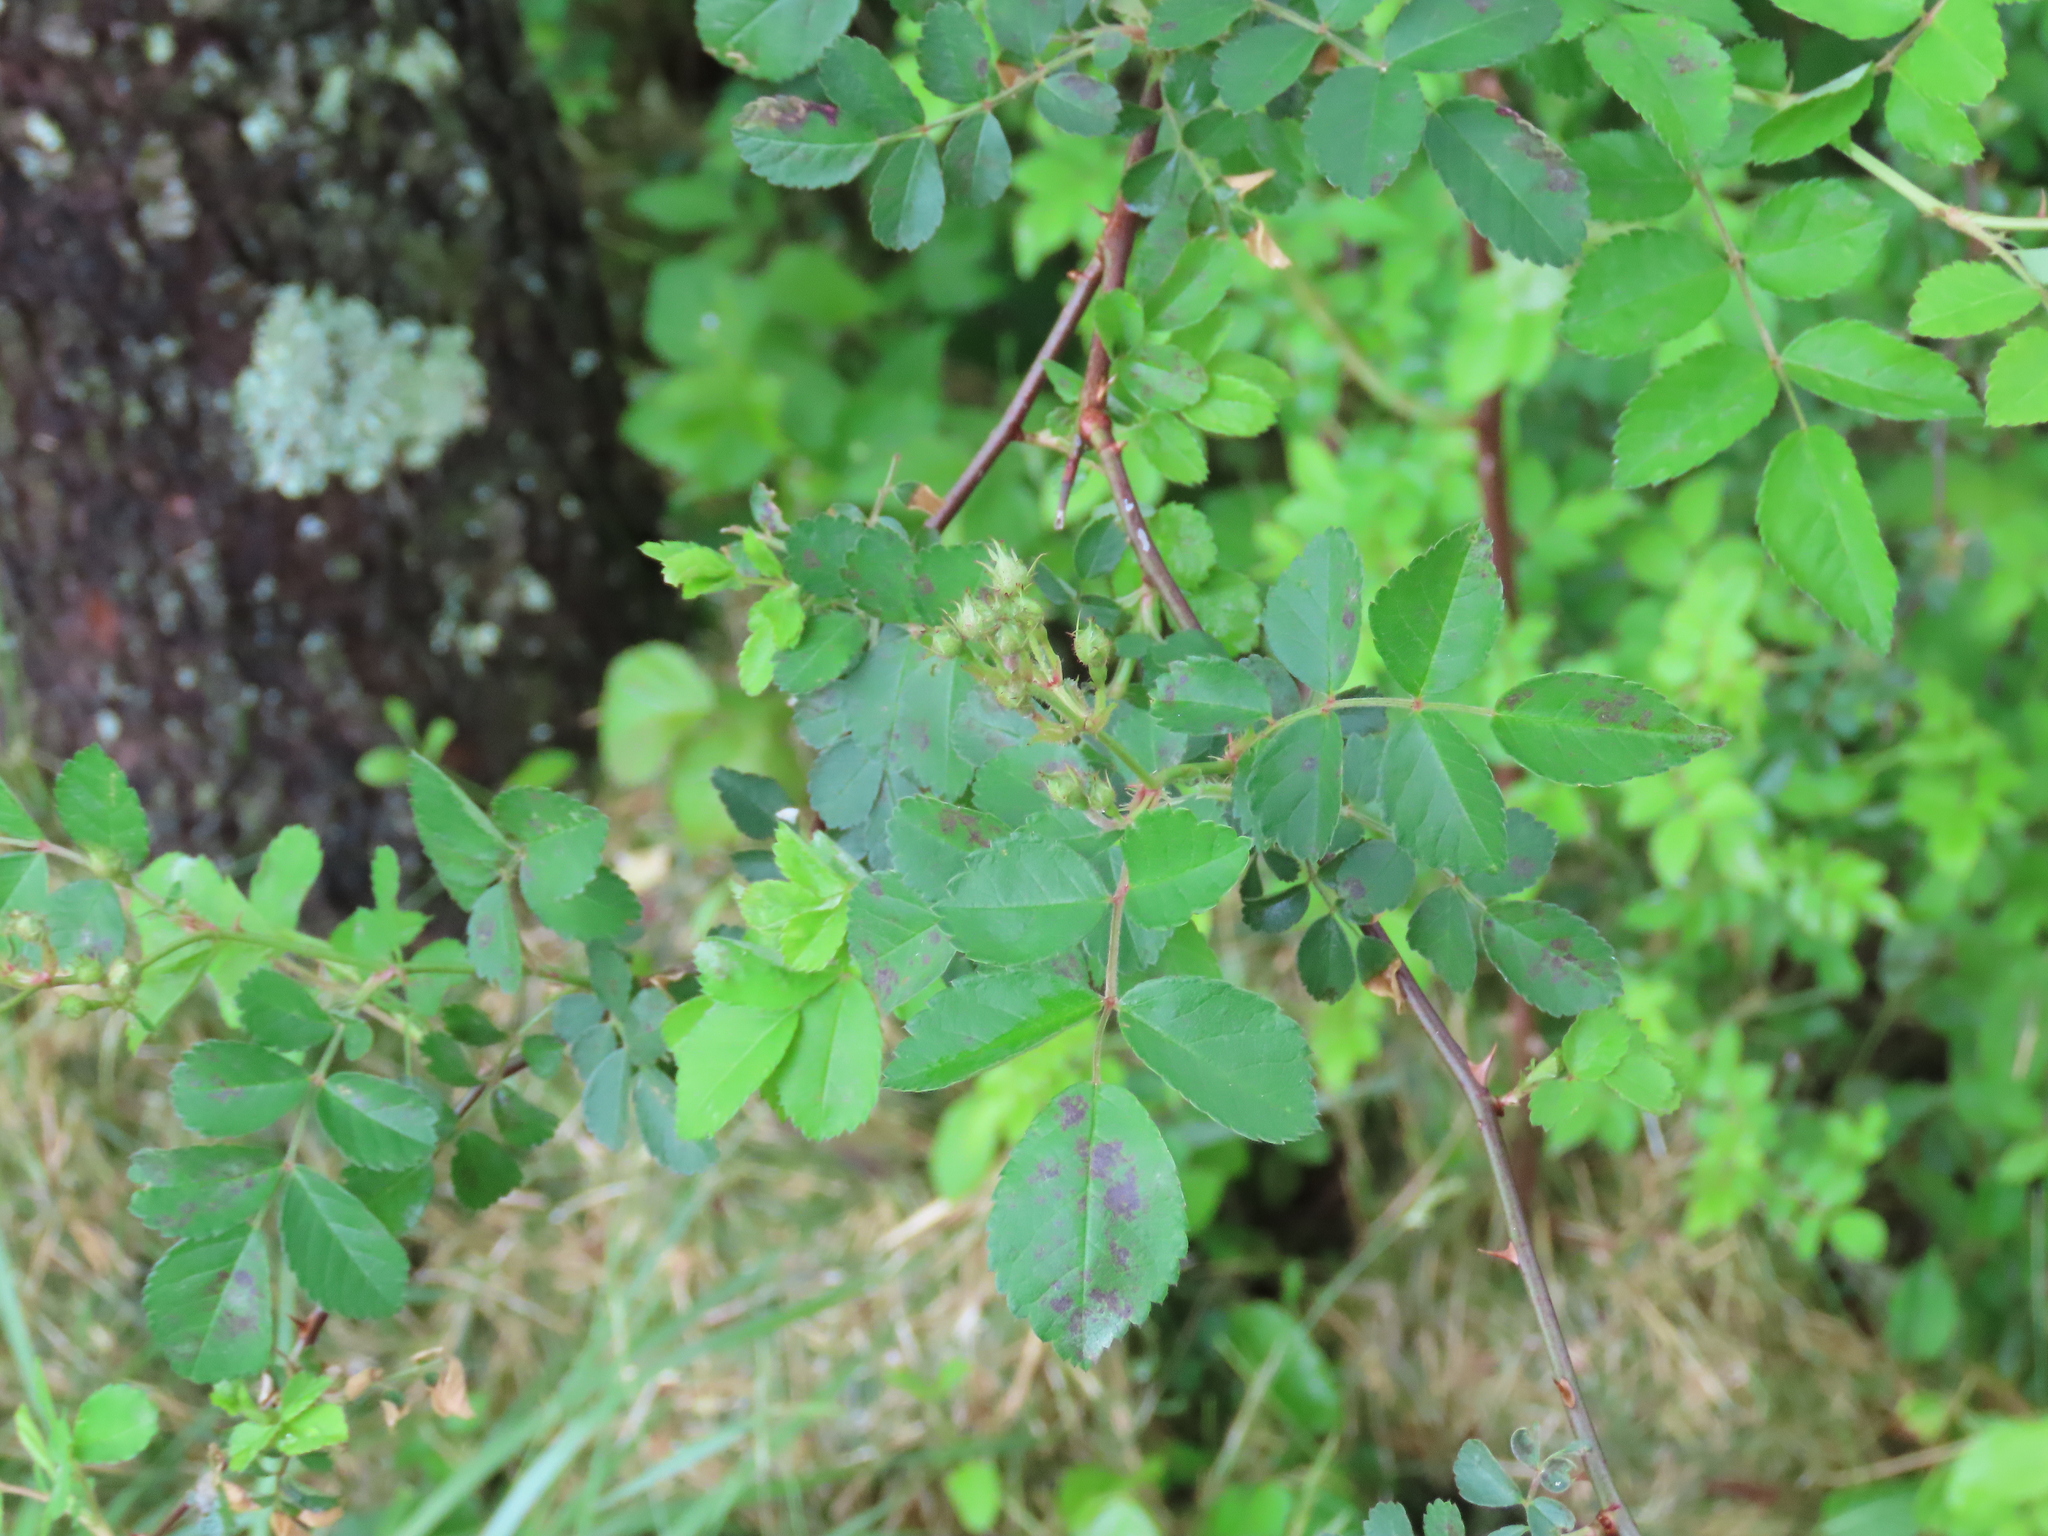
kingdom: Plantae
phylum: Tracheophyta
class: Magnoliopsida
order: Rosales
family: Rosaceae
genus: Rosa
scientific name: Rosa multiflora
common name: Multiflora rose
